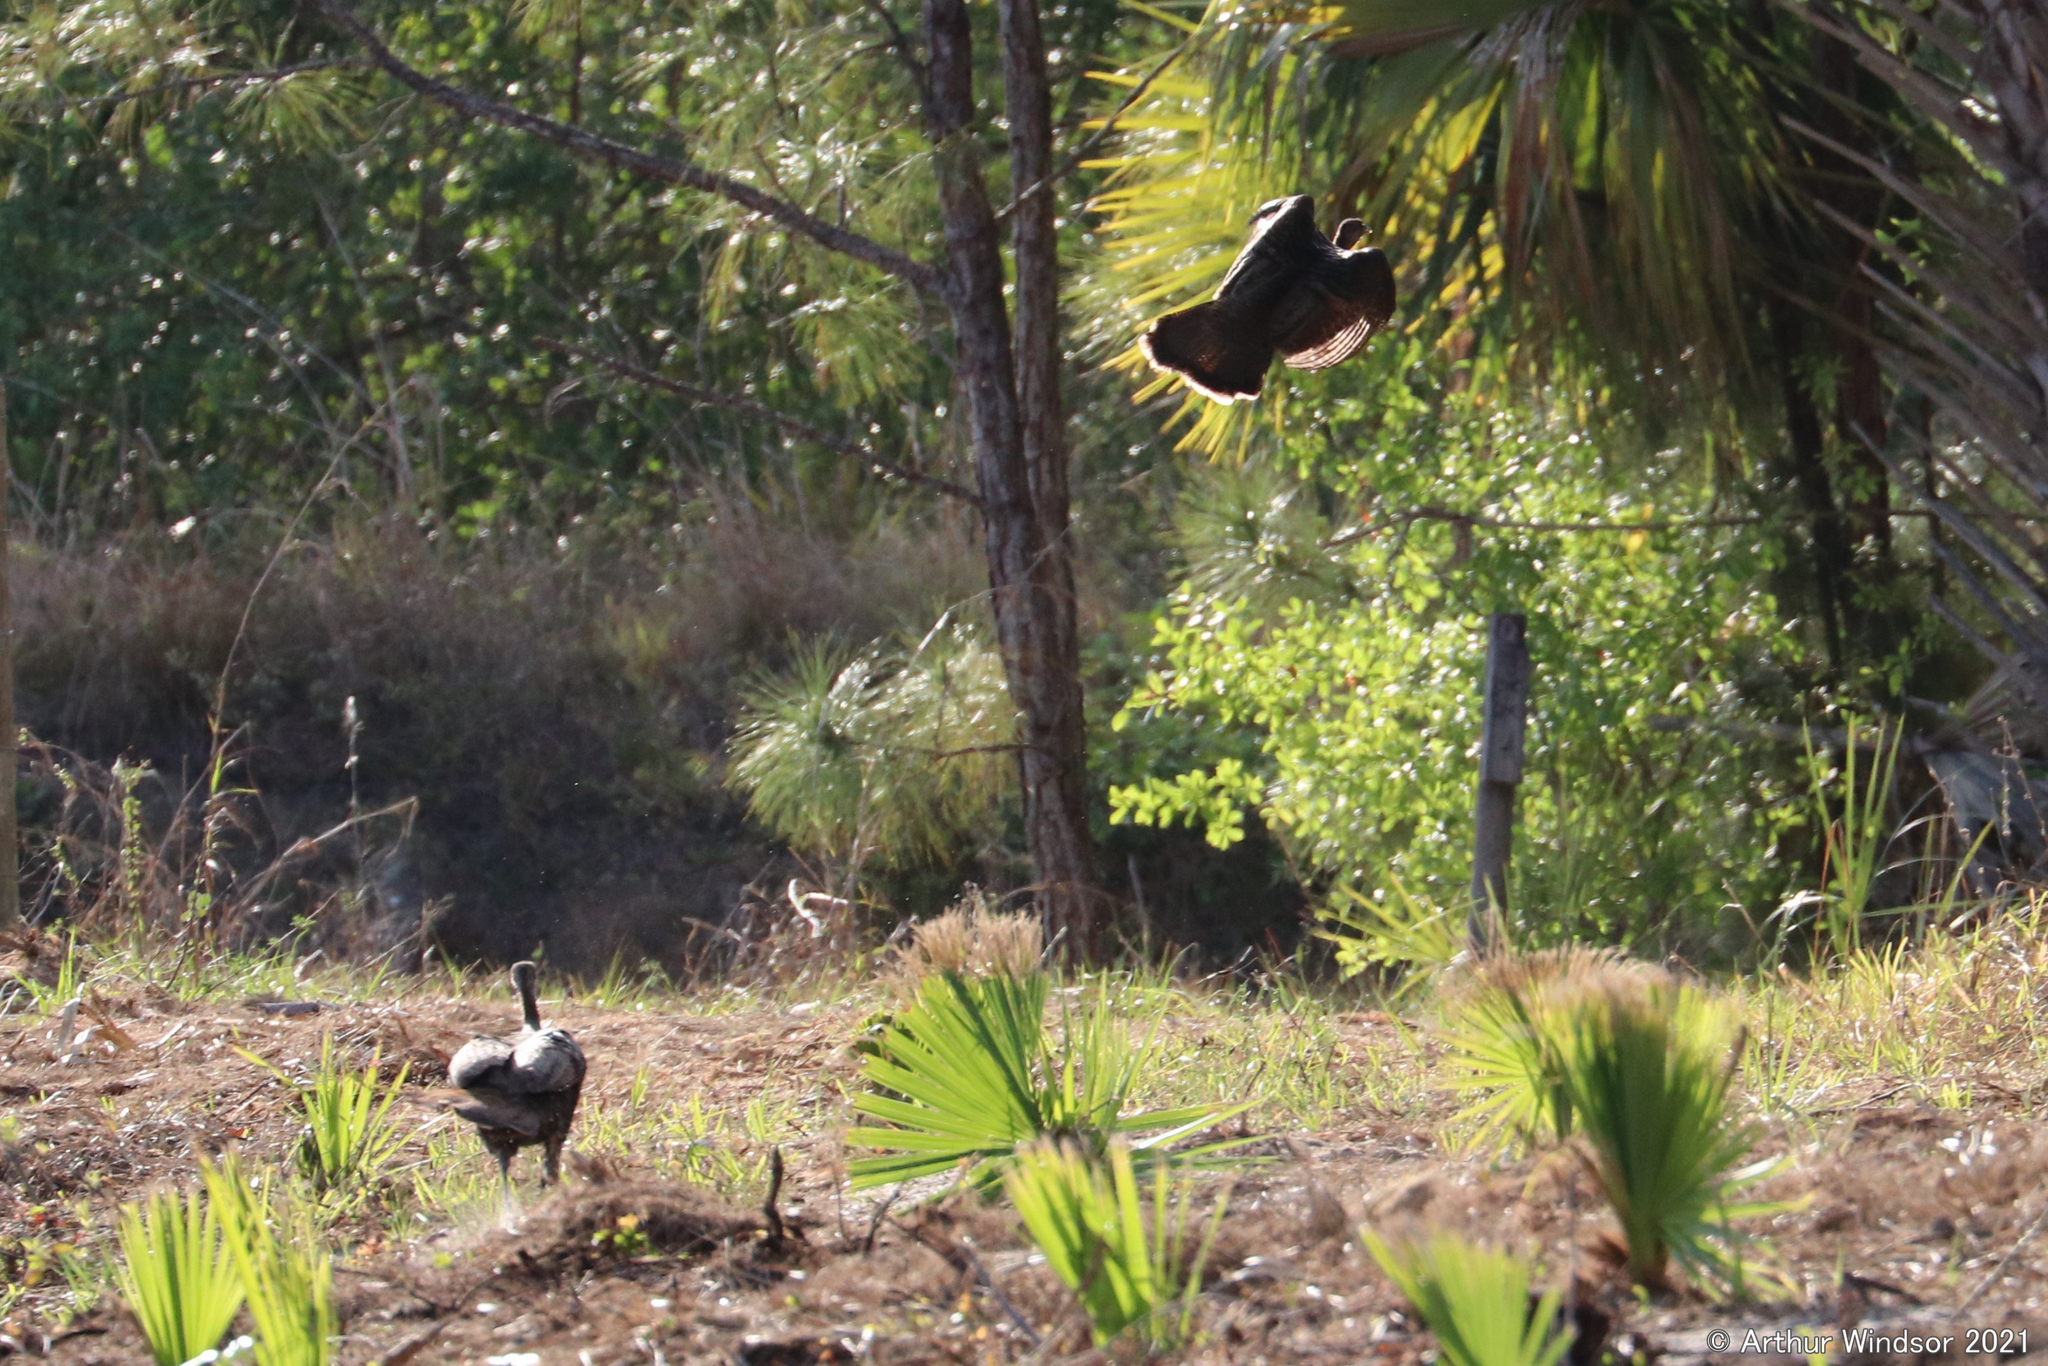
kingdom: Animalia
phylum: Chordata
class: Aves
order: Galliformes
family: Phasianidae
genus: Meleagris
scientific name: Meleagris gallopavo
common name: Wild turkey
